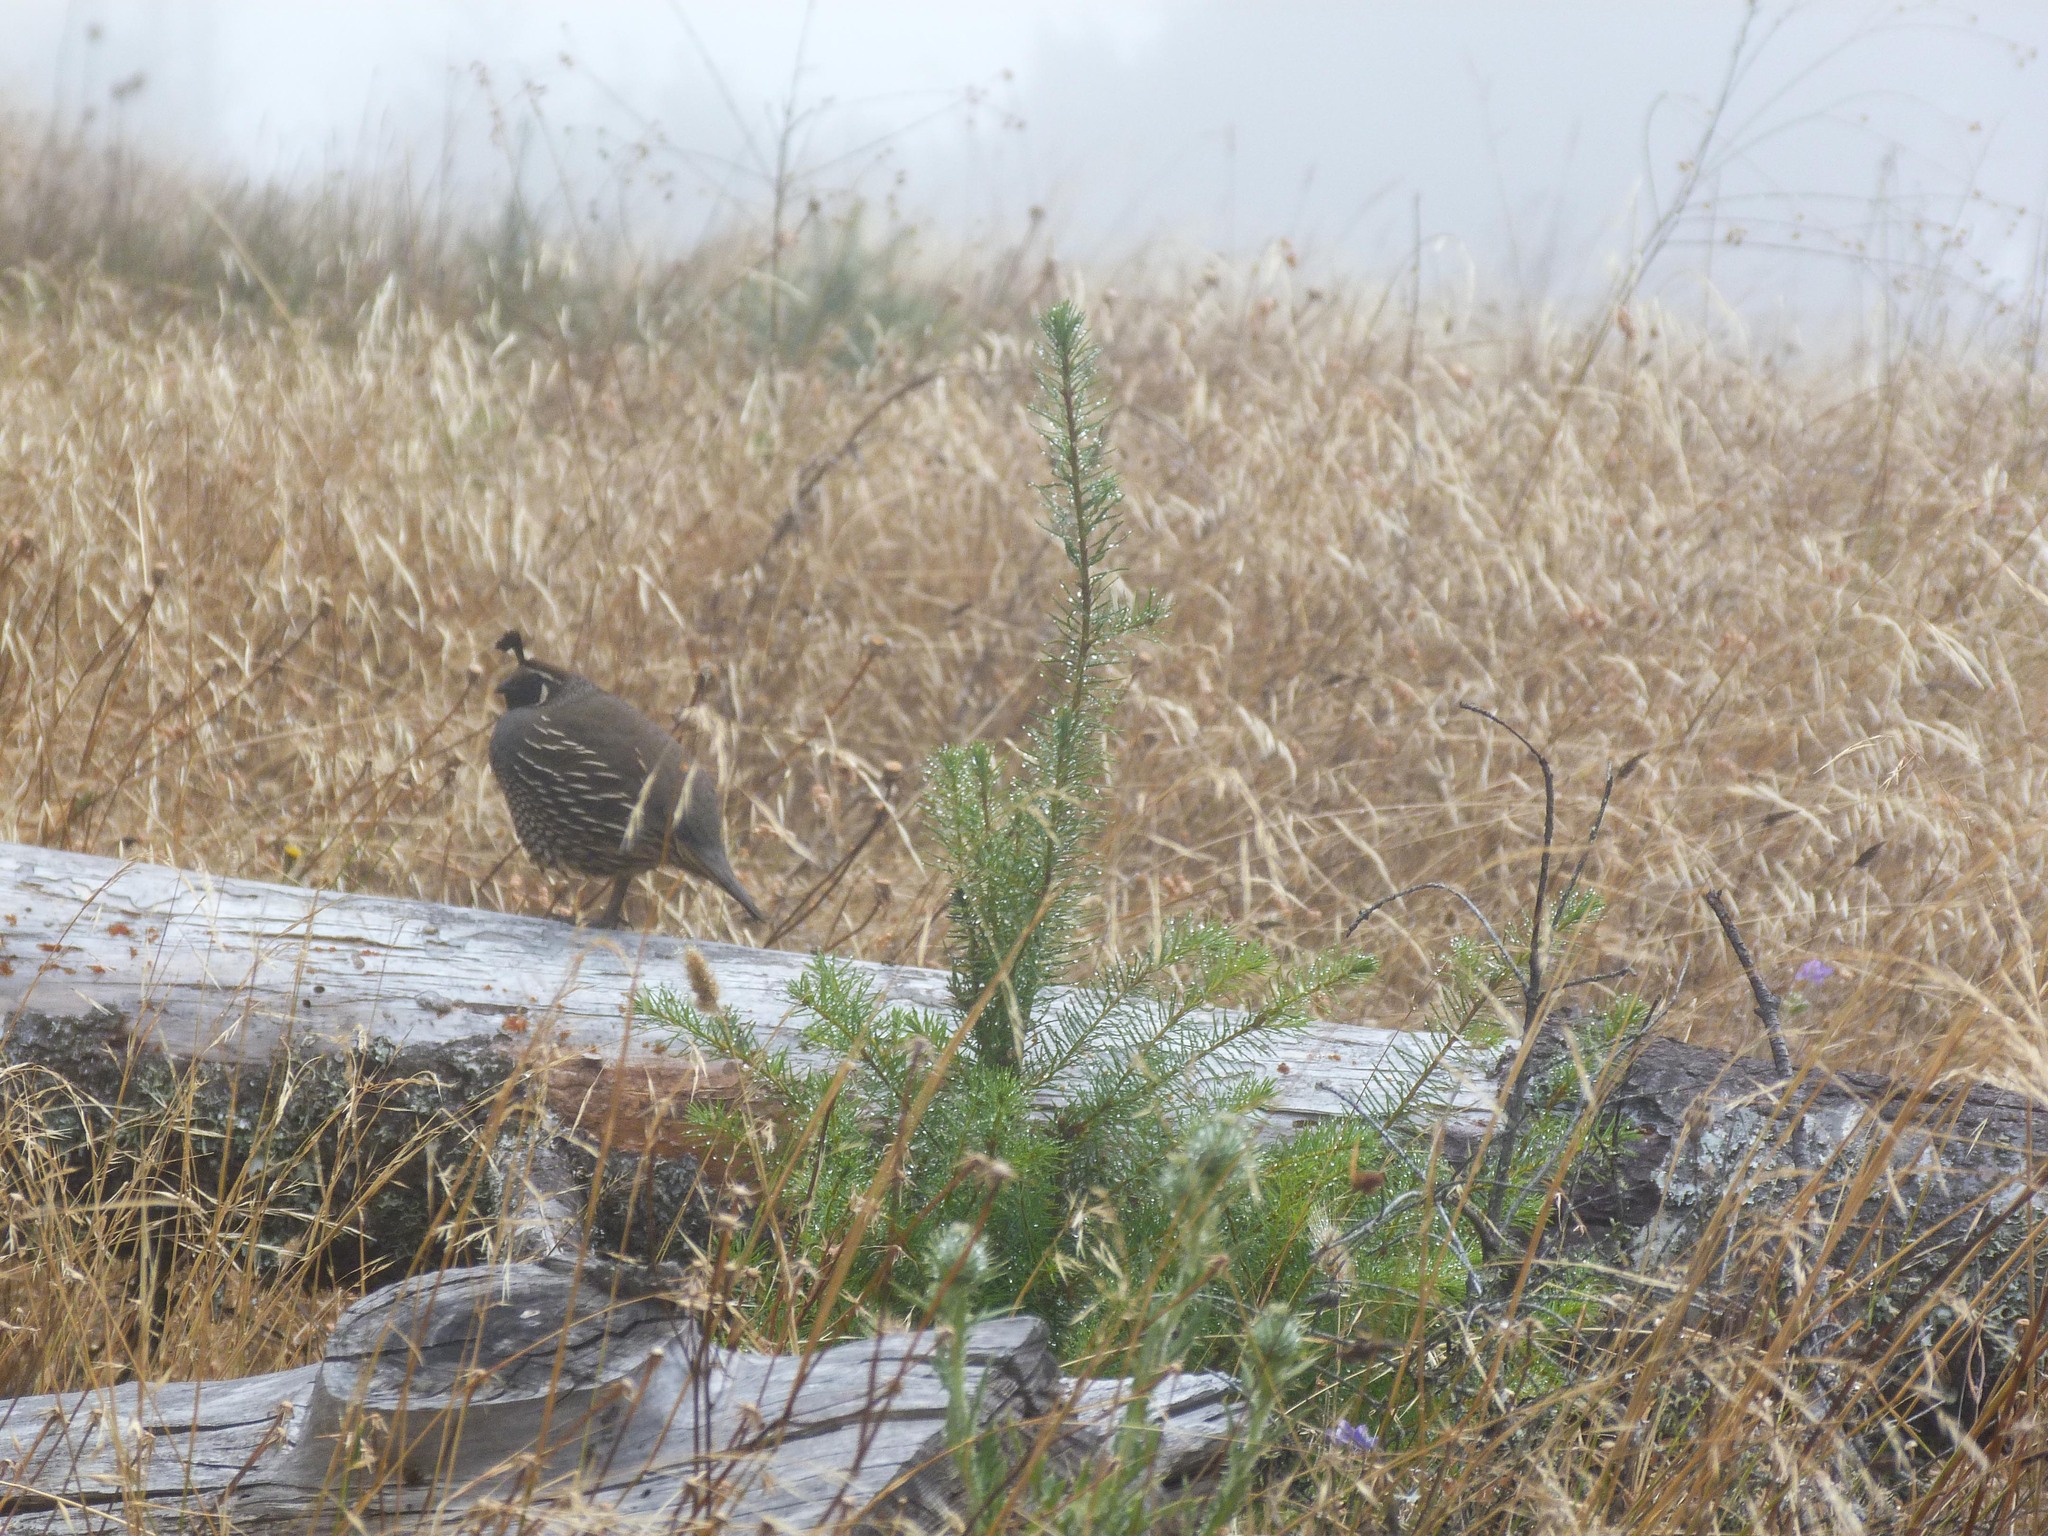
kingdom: Animalia
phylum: Chordata
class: Aves
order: Galliformes
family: Odontophoridae
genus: Callipepla
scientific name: Callipepla californica
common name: California quail
